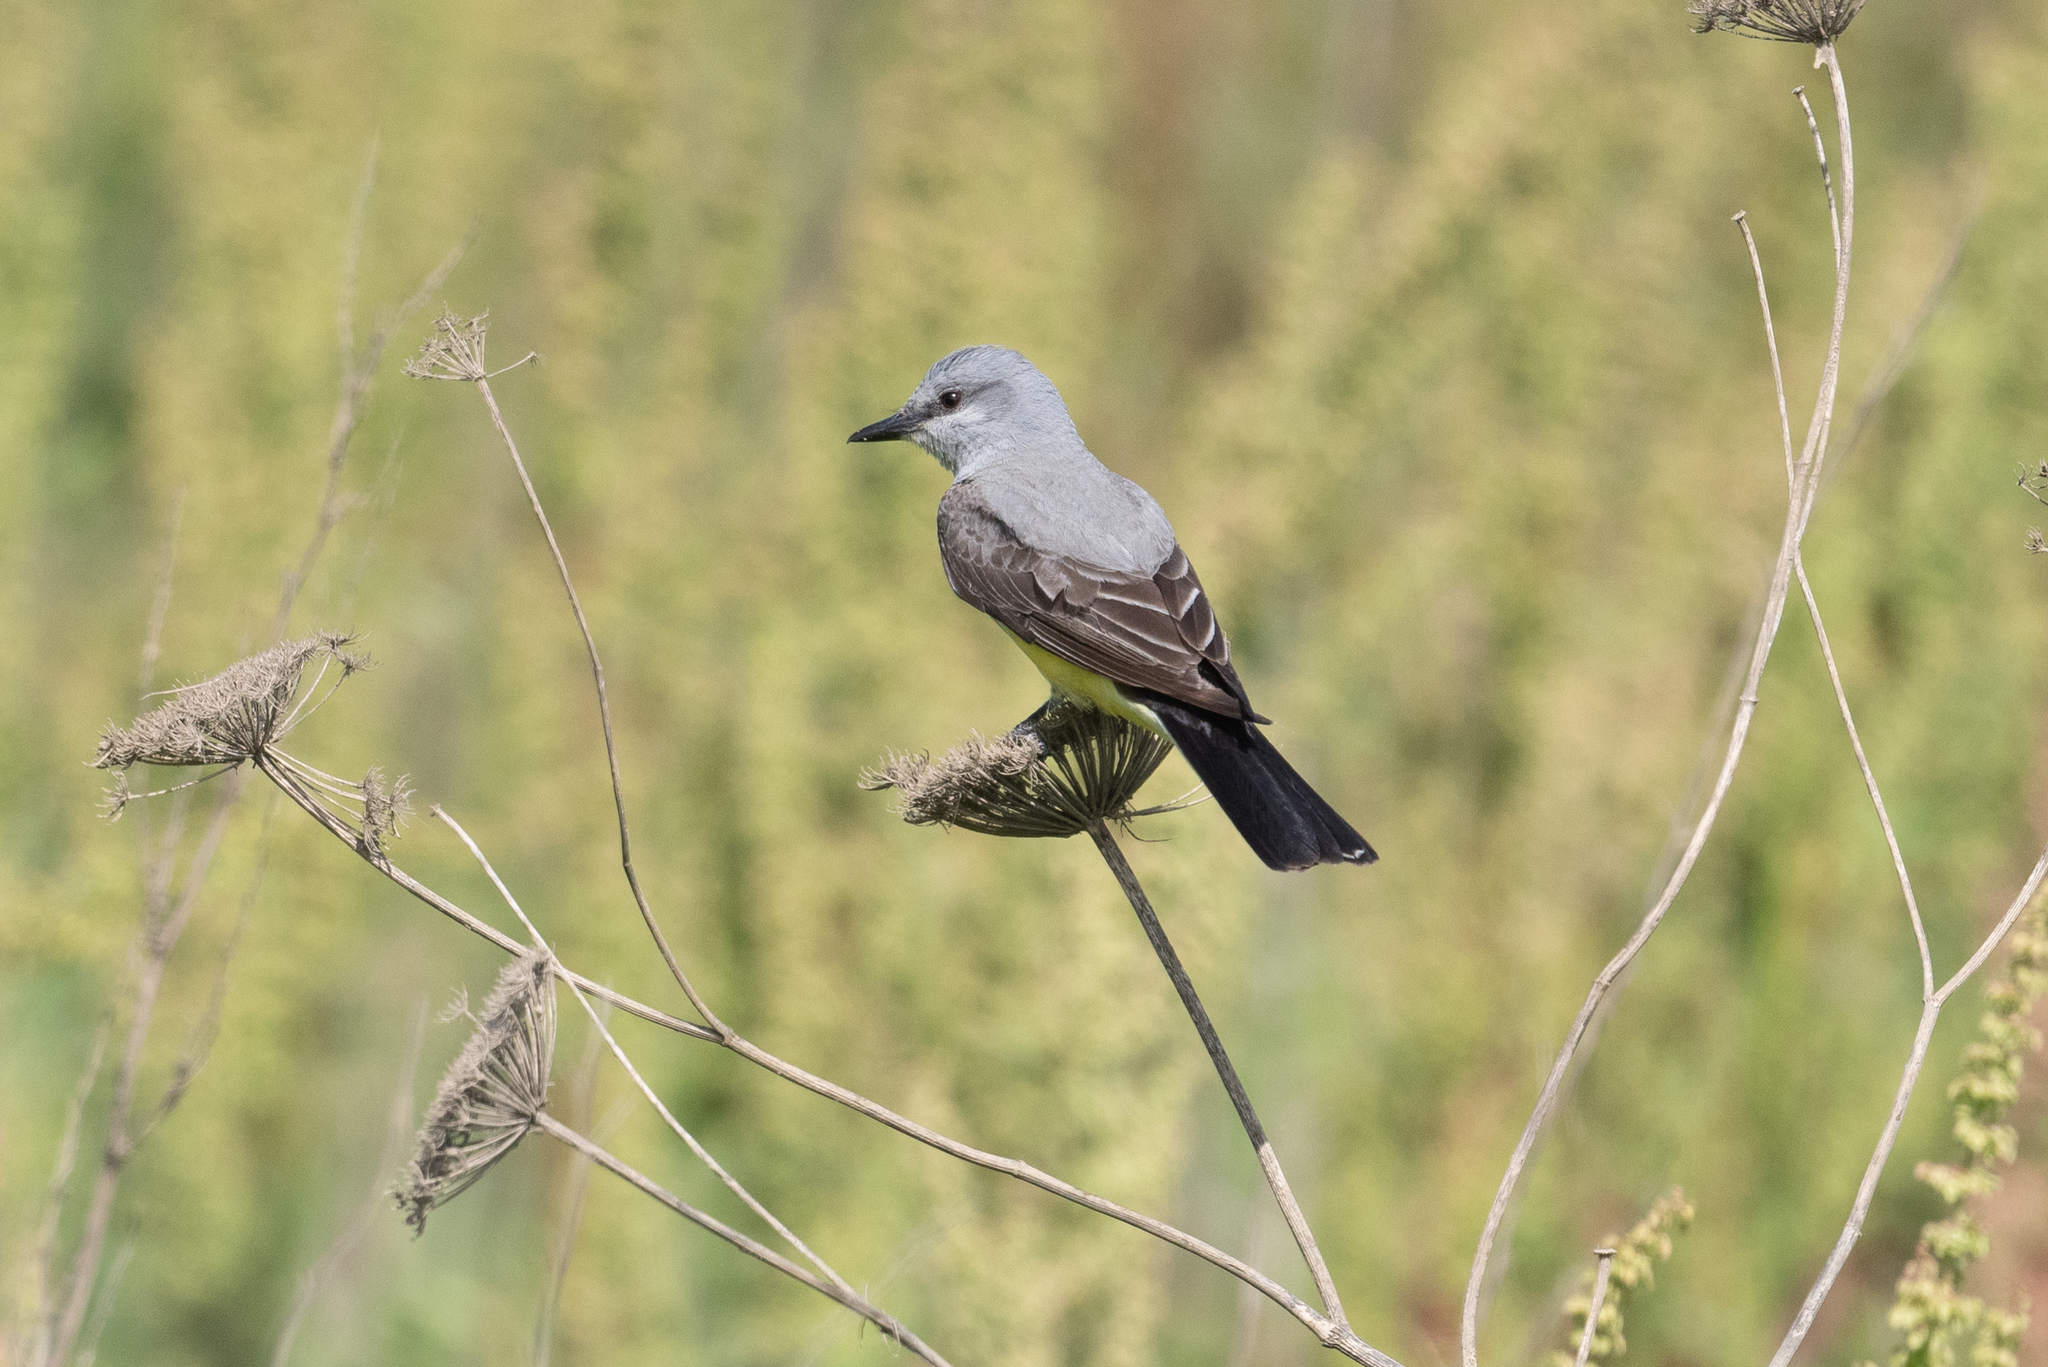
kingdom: Animalia
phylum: Chordata
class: Aves
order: Passeriformes
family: Tyrannidae
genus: Tyrannus
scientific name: Tyrannus verticalis
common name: Western kingbird
